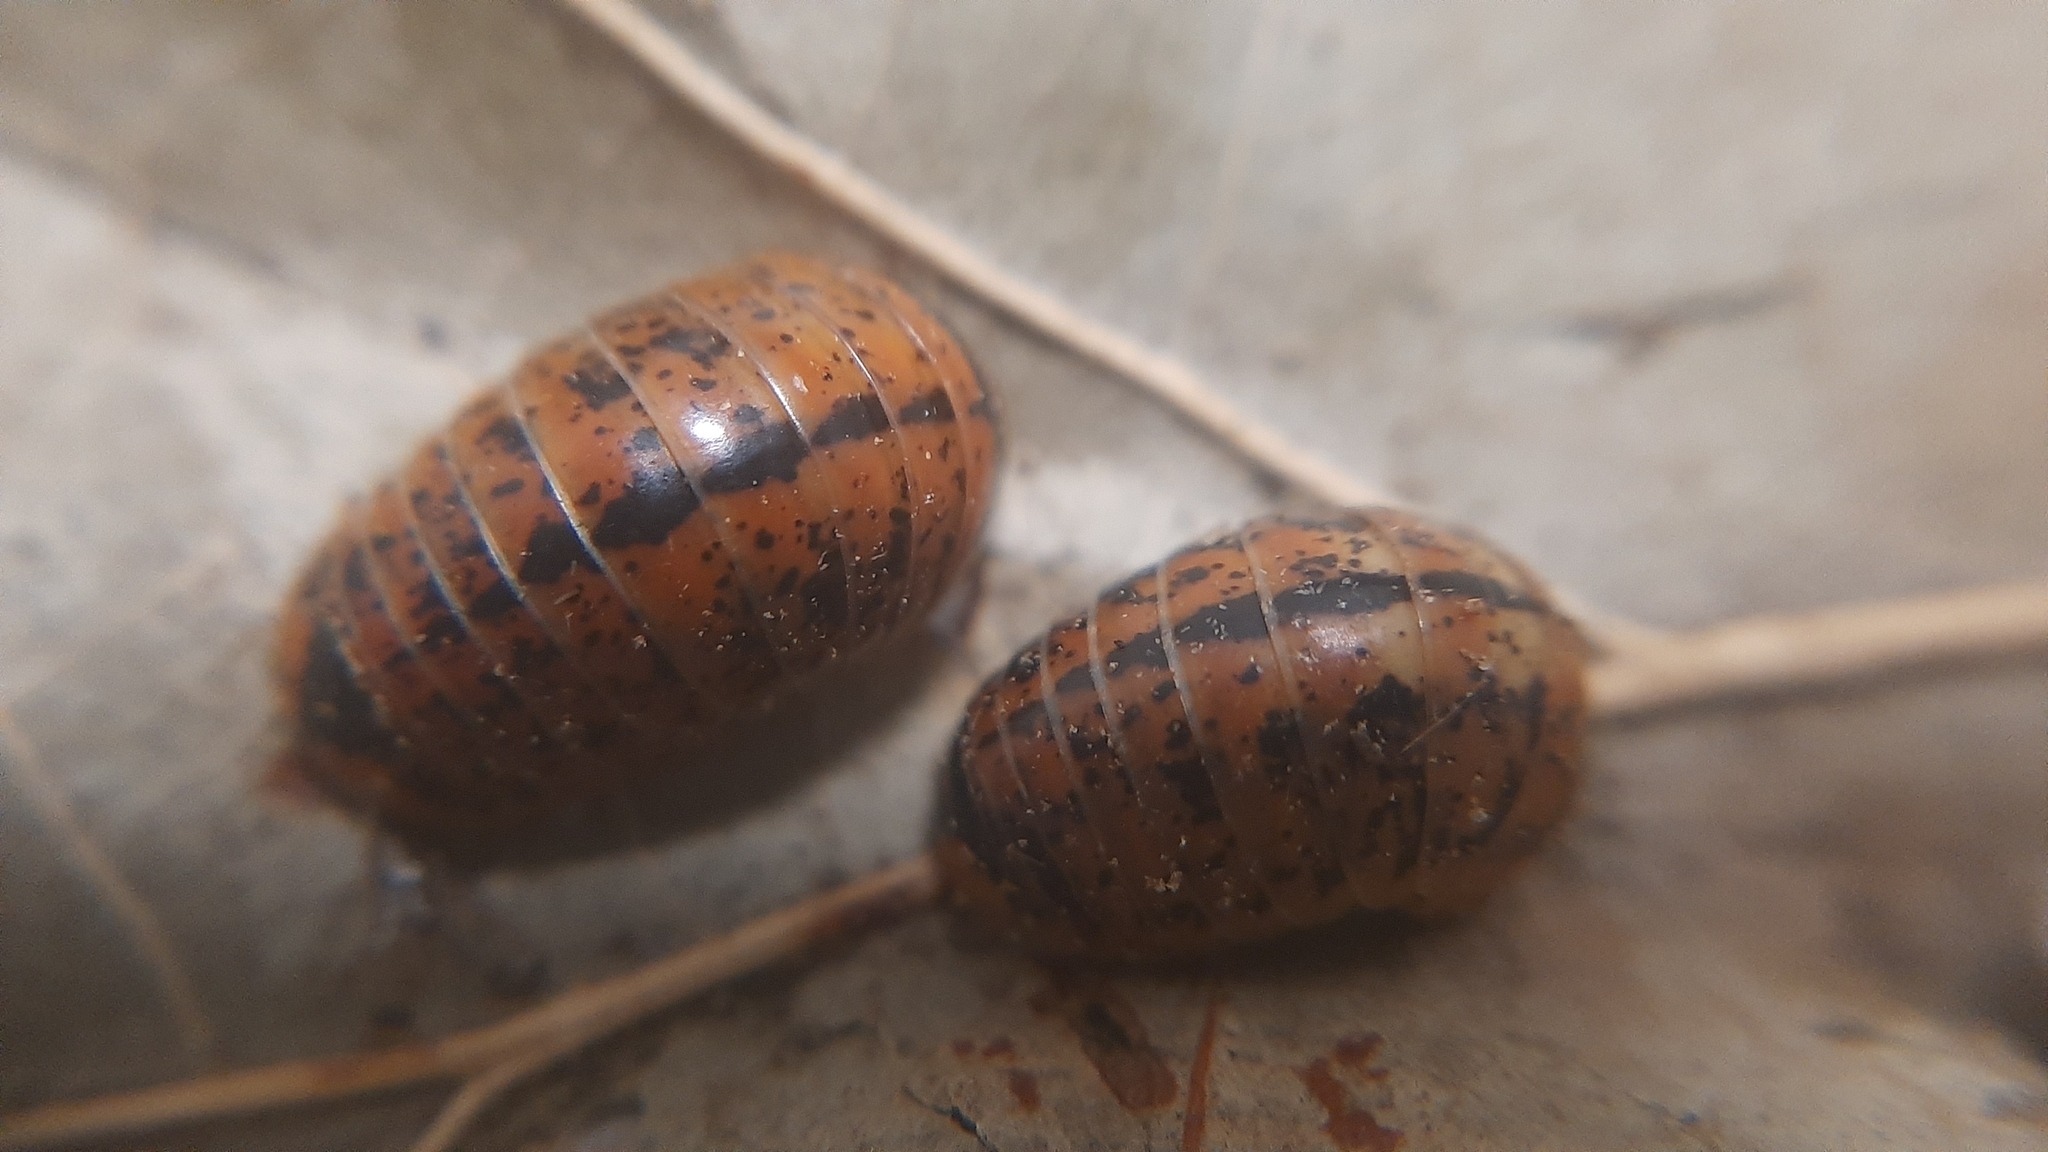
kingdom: Animalia
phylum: Arthropoda
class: Diplopoda
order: Glomerida
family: Glomeridae
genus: Glomeris
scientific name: Glomeris klugii
